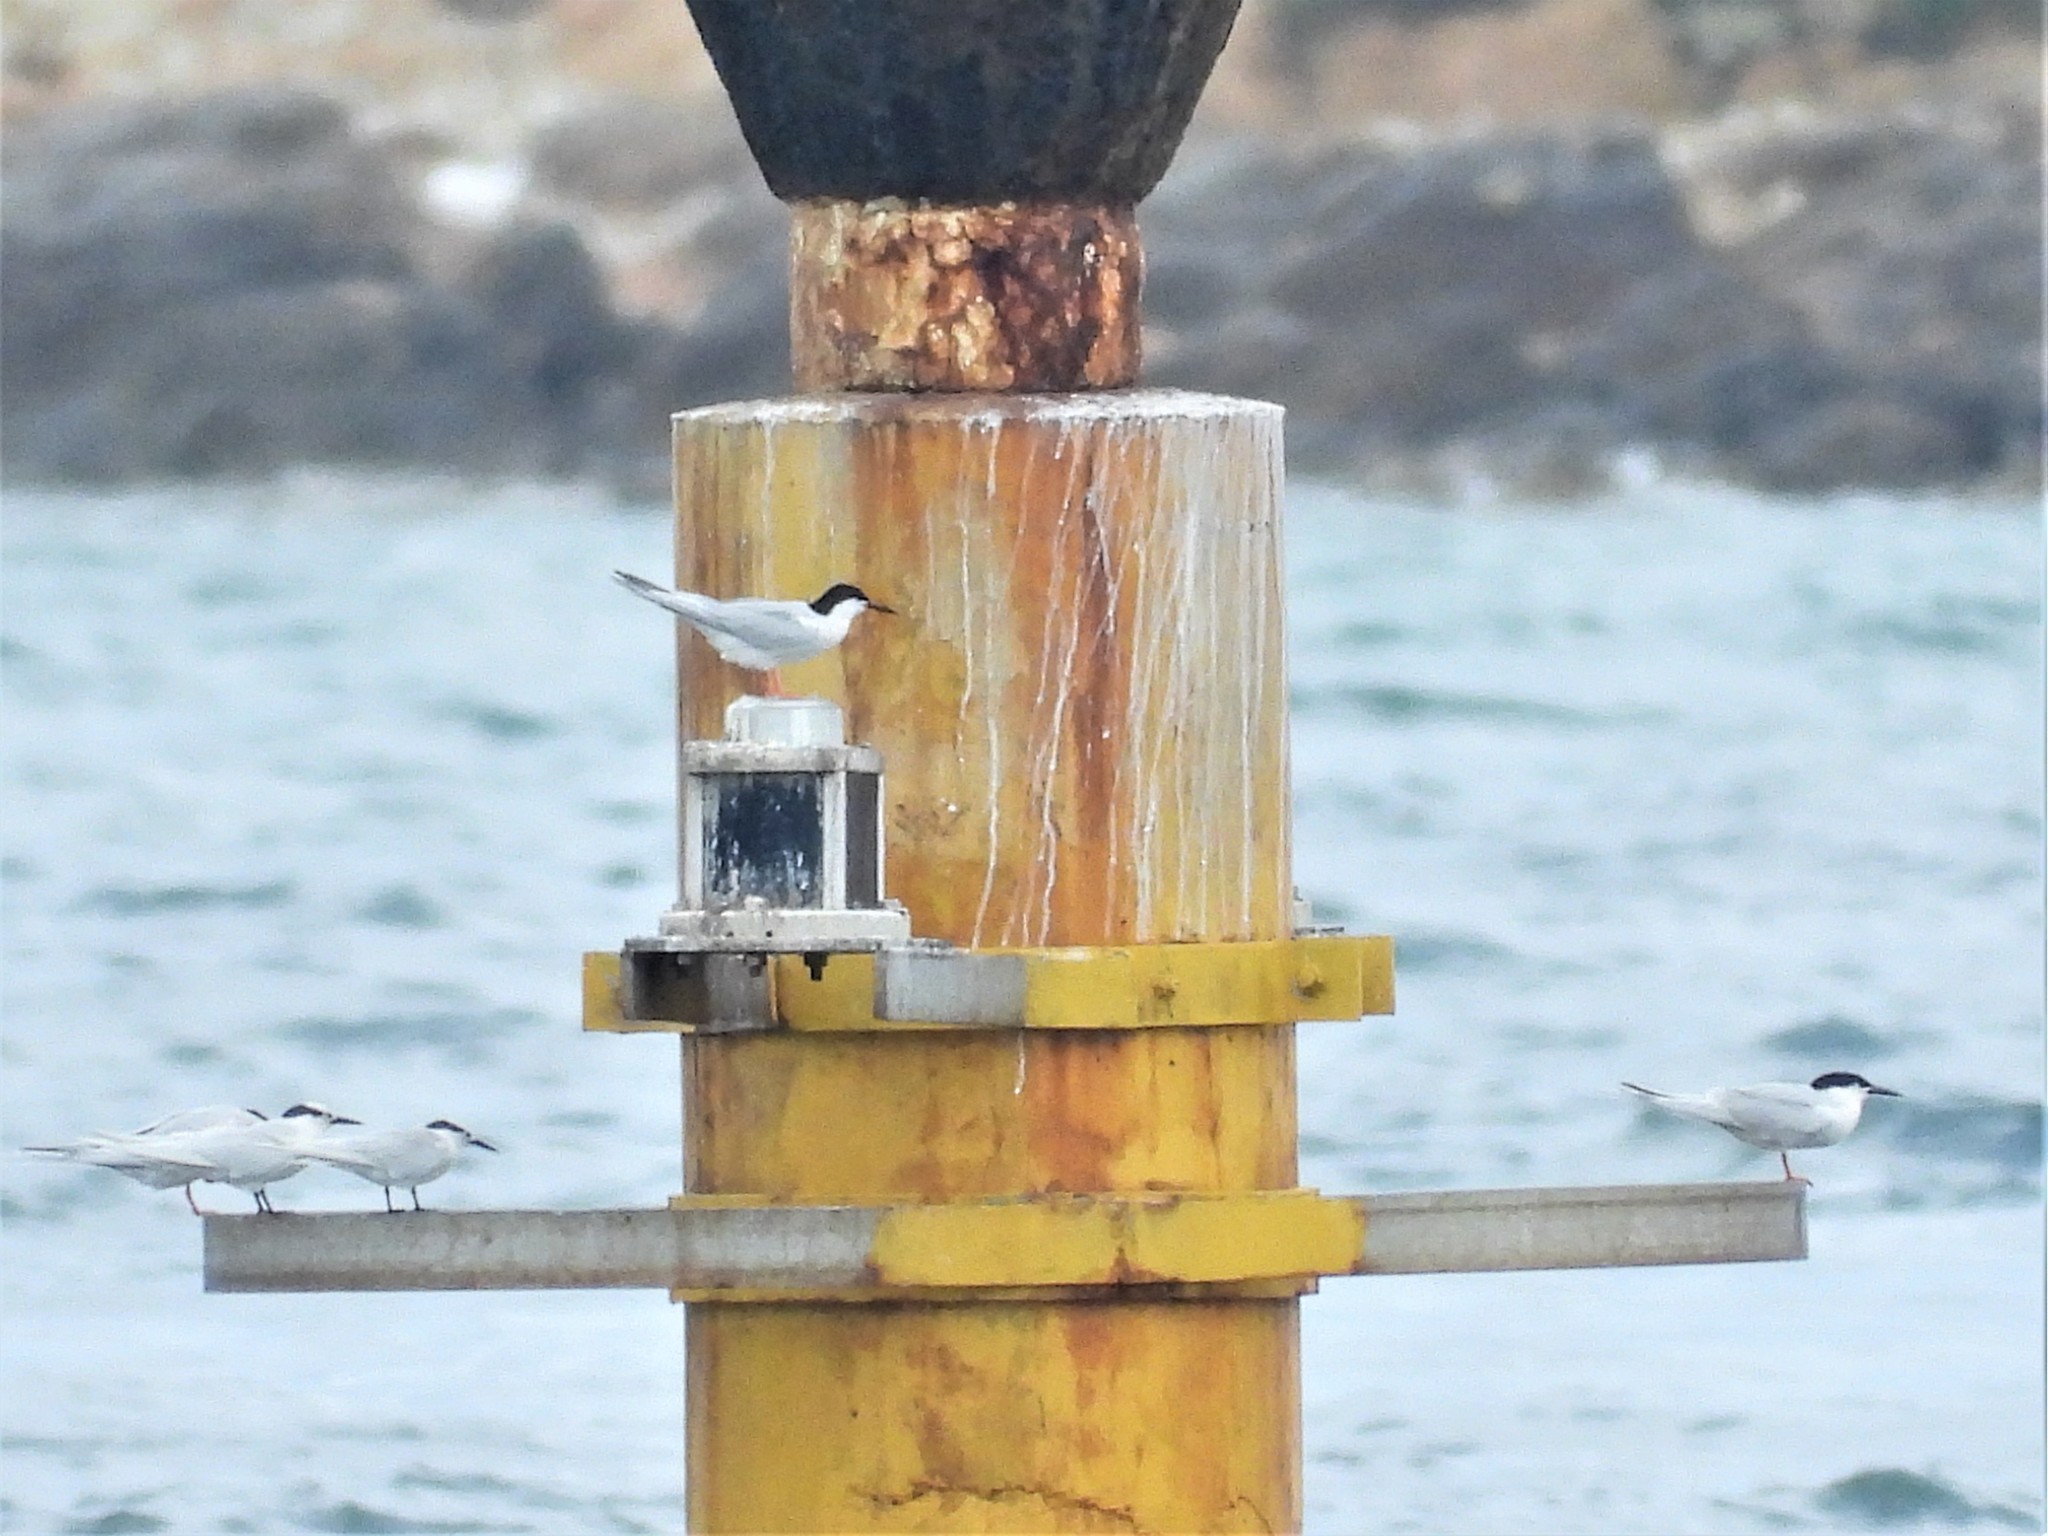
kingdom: Animalia
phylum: Chordata
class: Aves
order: Charadriiformes
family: Laridae
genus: Sterna
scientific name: Sterna dougallii
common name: Roseate tern
